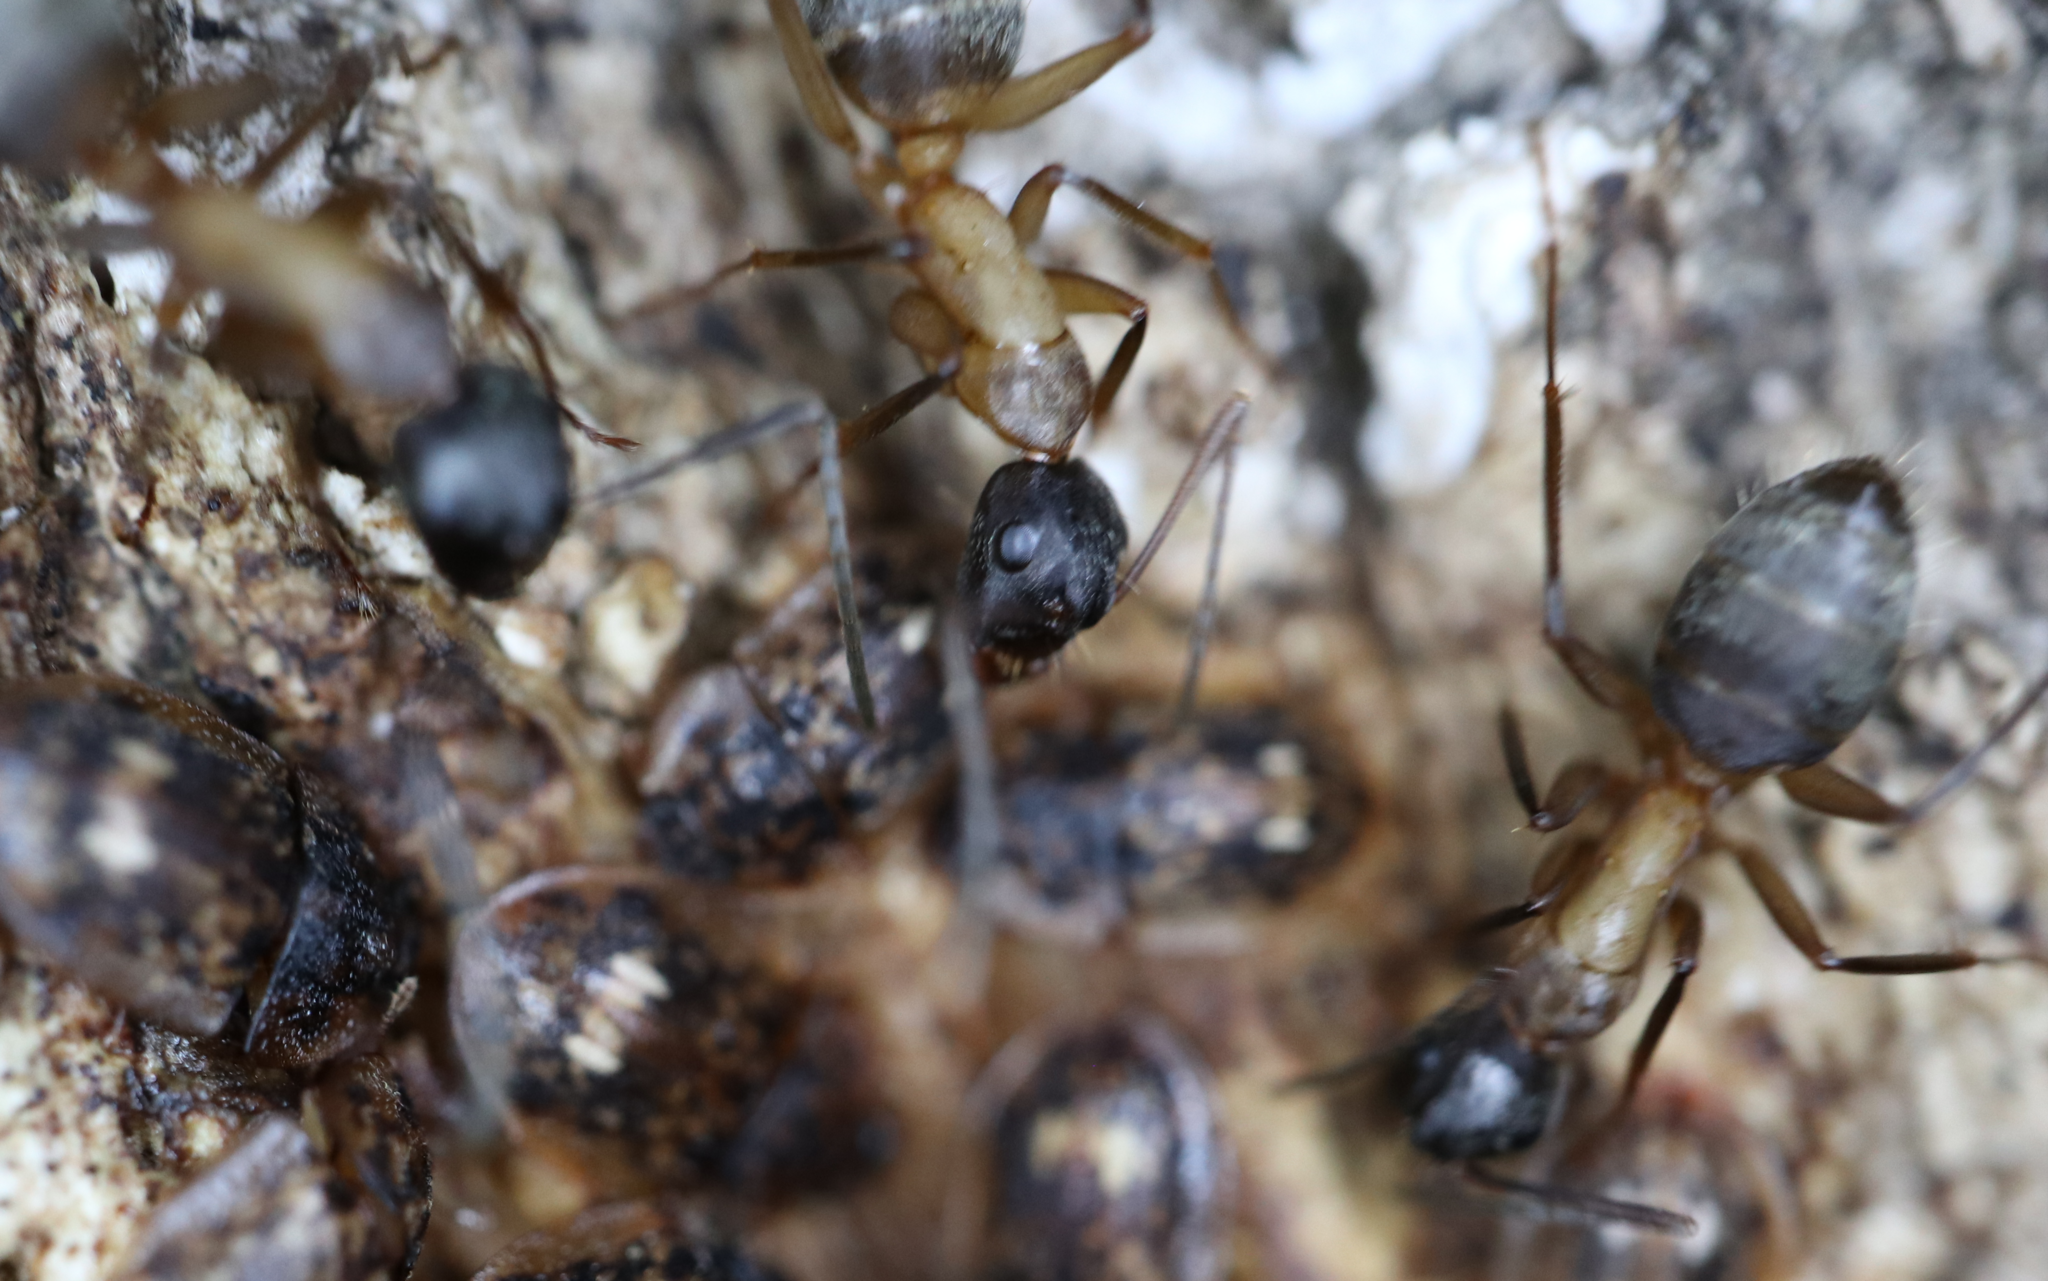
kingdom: Animalia
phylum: Arthropoda
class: Insecta
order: Hymenoptera
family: Formicidae
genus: Camponotus
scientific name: Camponotus chromaiodes
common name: Red carpenter ant
